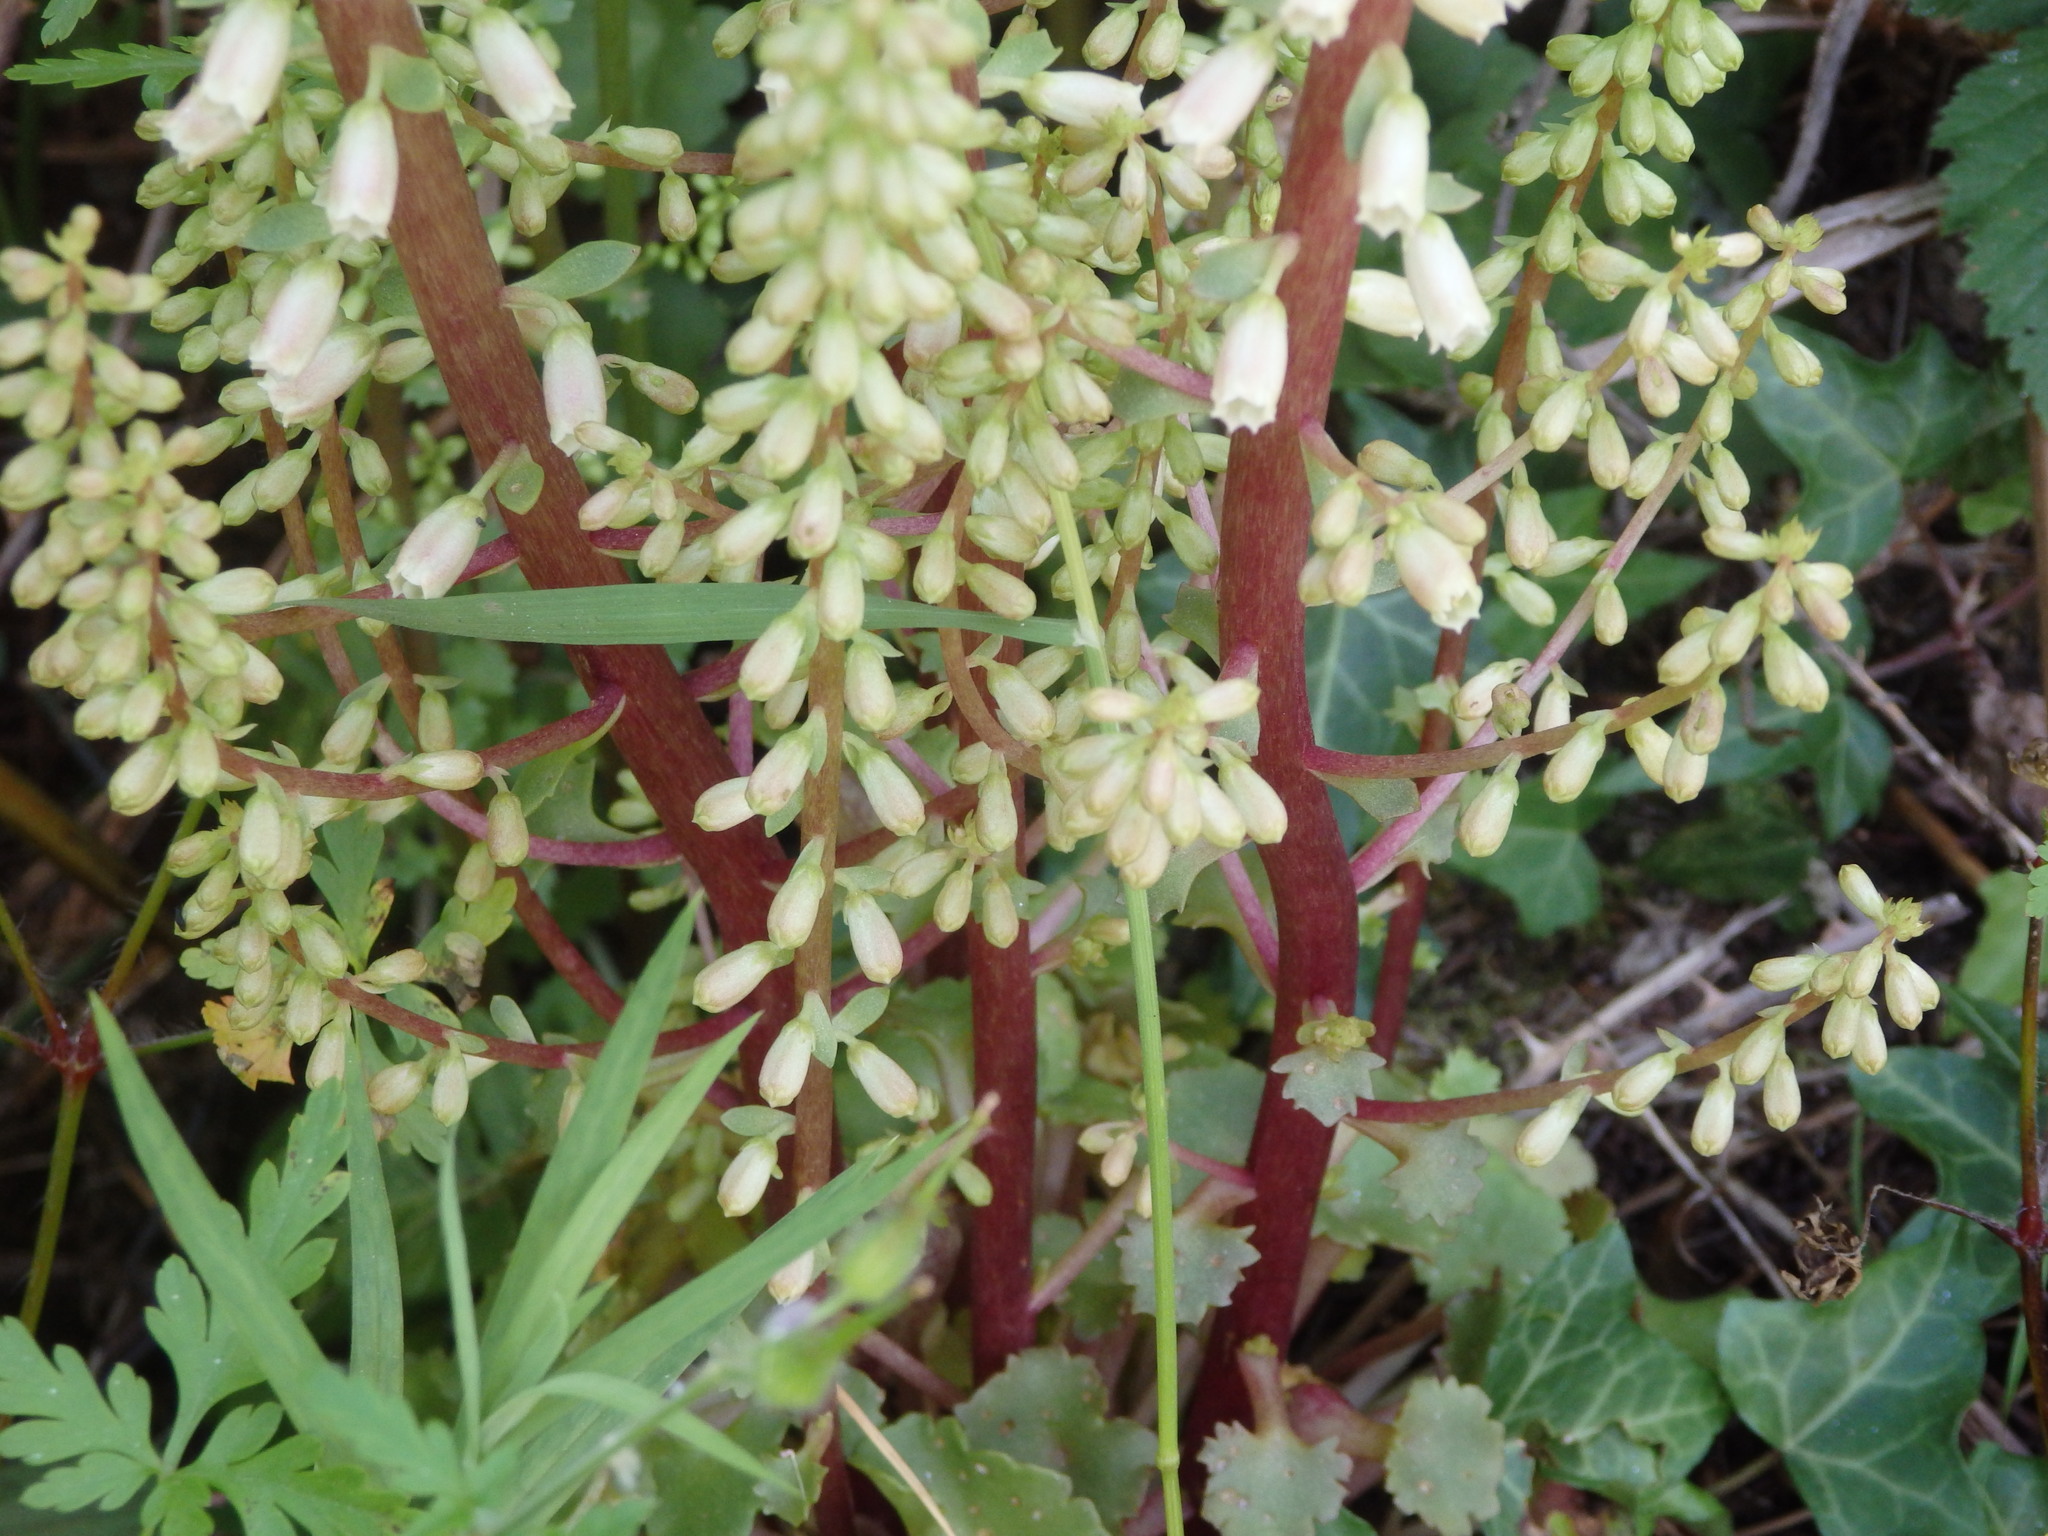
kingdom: Plantae
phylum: Tracheophyta
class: Magnoliopsida
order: Saxifragales
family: Crassulaceae
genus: Umbilicus
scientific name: Umbilicus rupestris
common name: Navelwort
